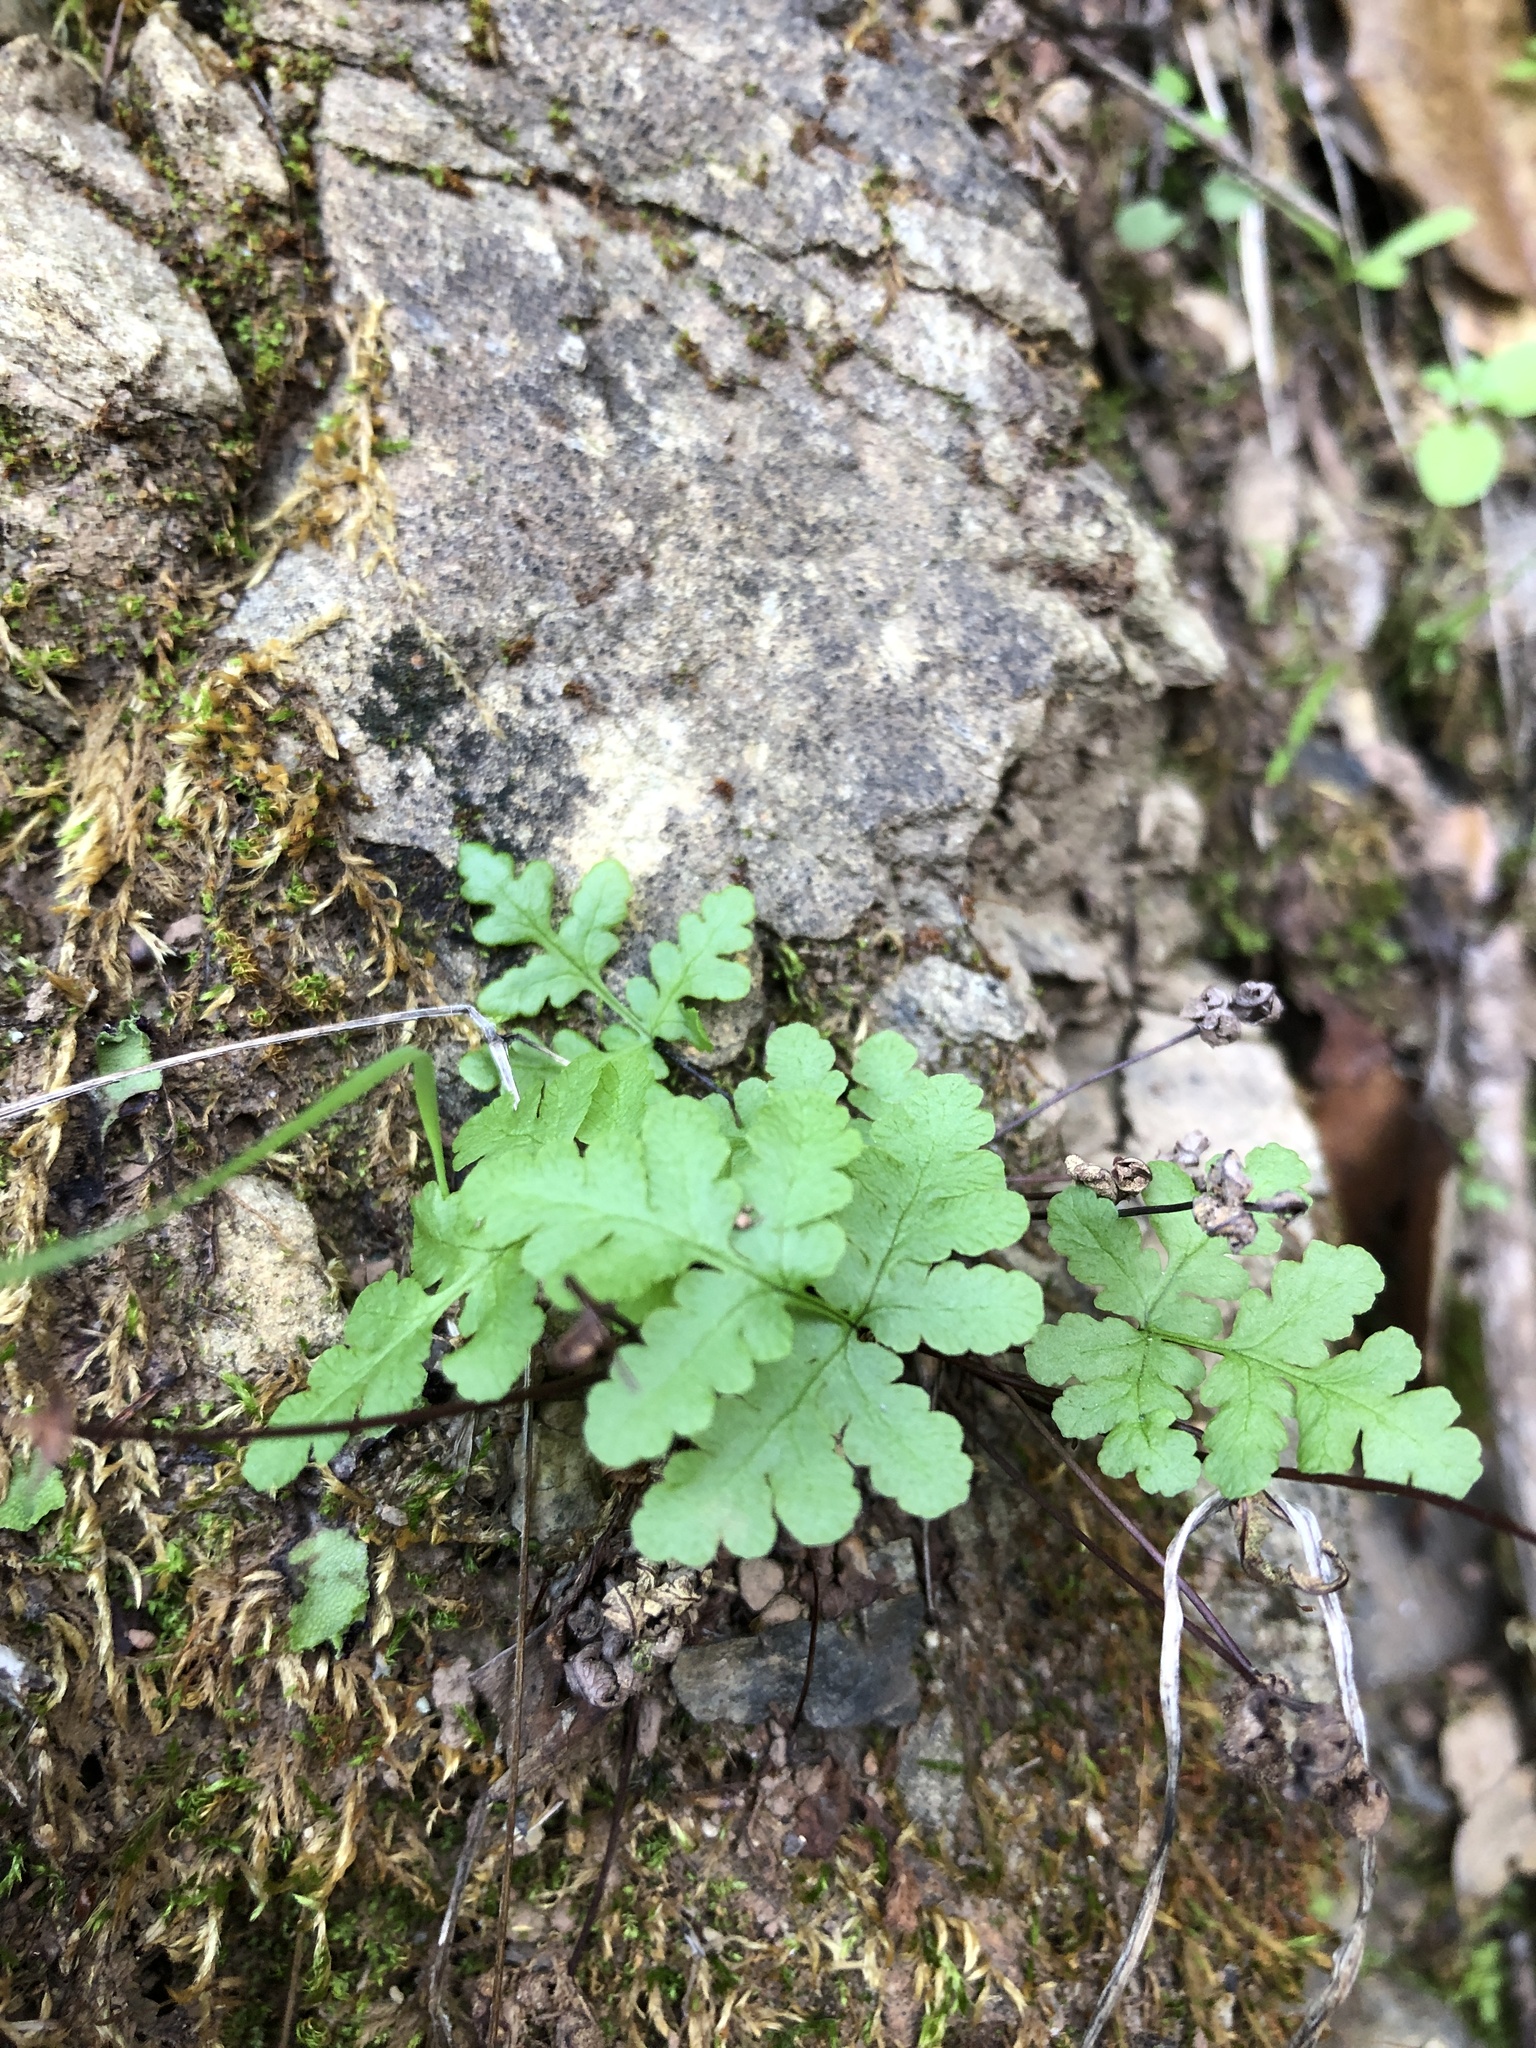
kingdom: Plantae
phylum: Tracheophyta
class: Polypodiopsida
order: Polypodiales
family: Pteridaceae
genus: Pentagramma
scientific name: Pentagramma triangularis
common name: Gold fern
